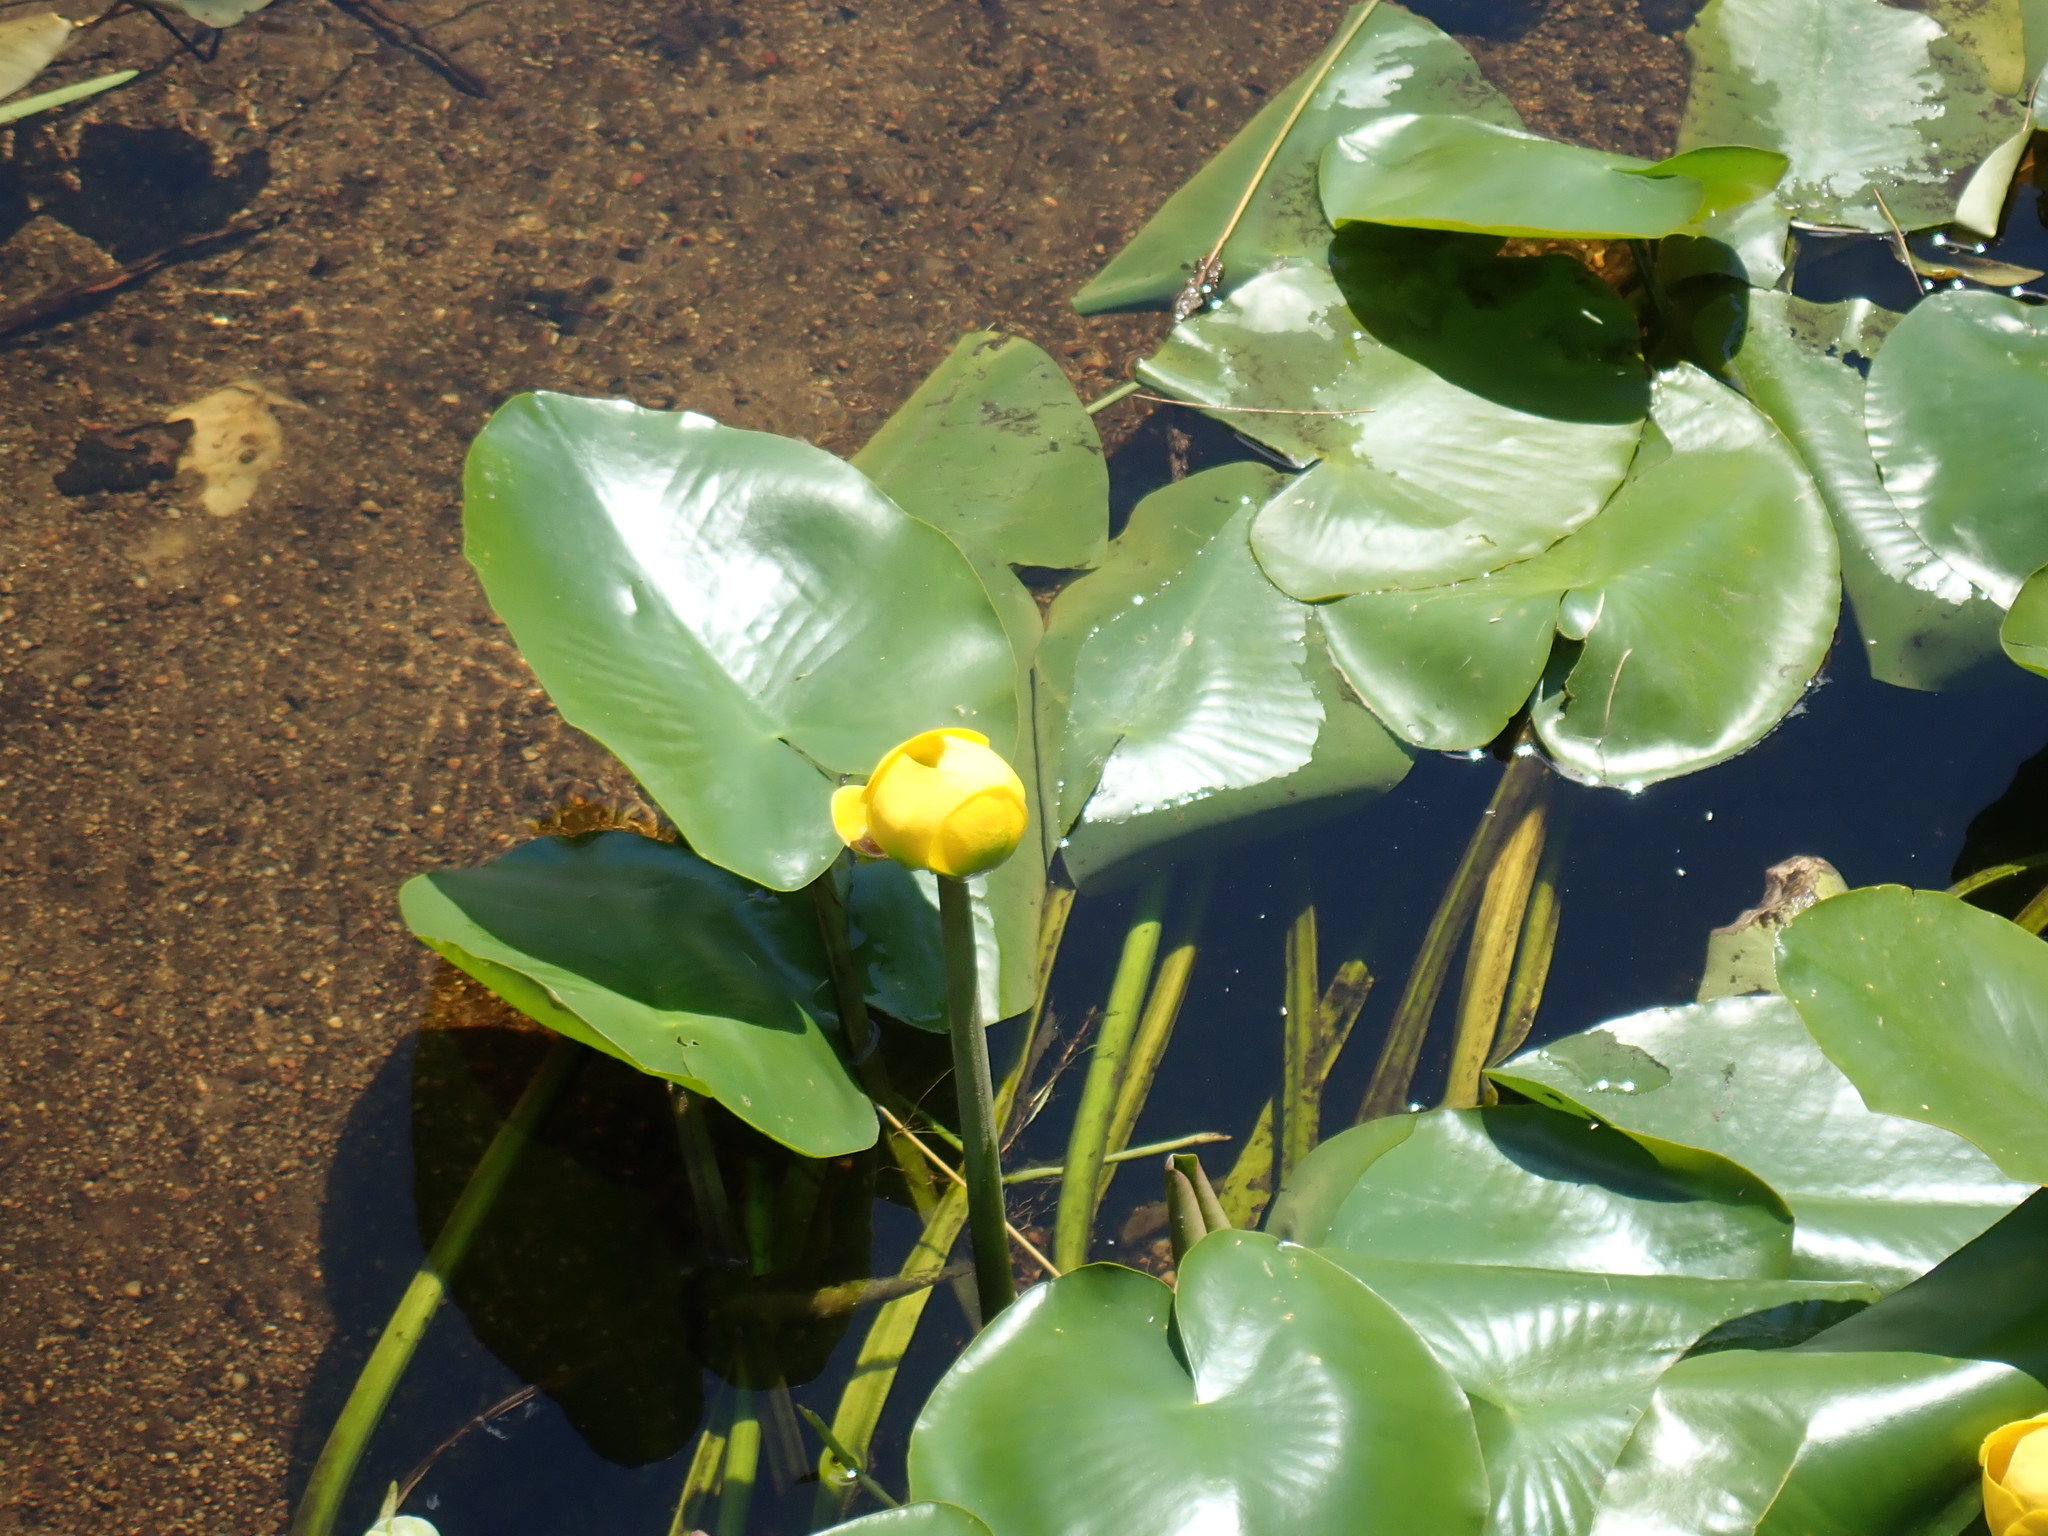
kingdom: Plantae
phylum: Tracheophyta
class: Magnoliopsida
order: Nymphaeales
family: Nymphaeaceae
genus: Nuphar
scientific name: Nuphar variegata
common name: Beaver-root
